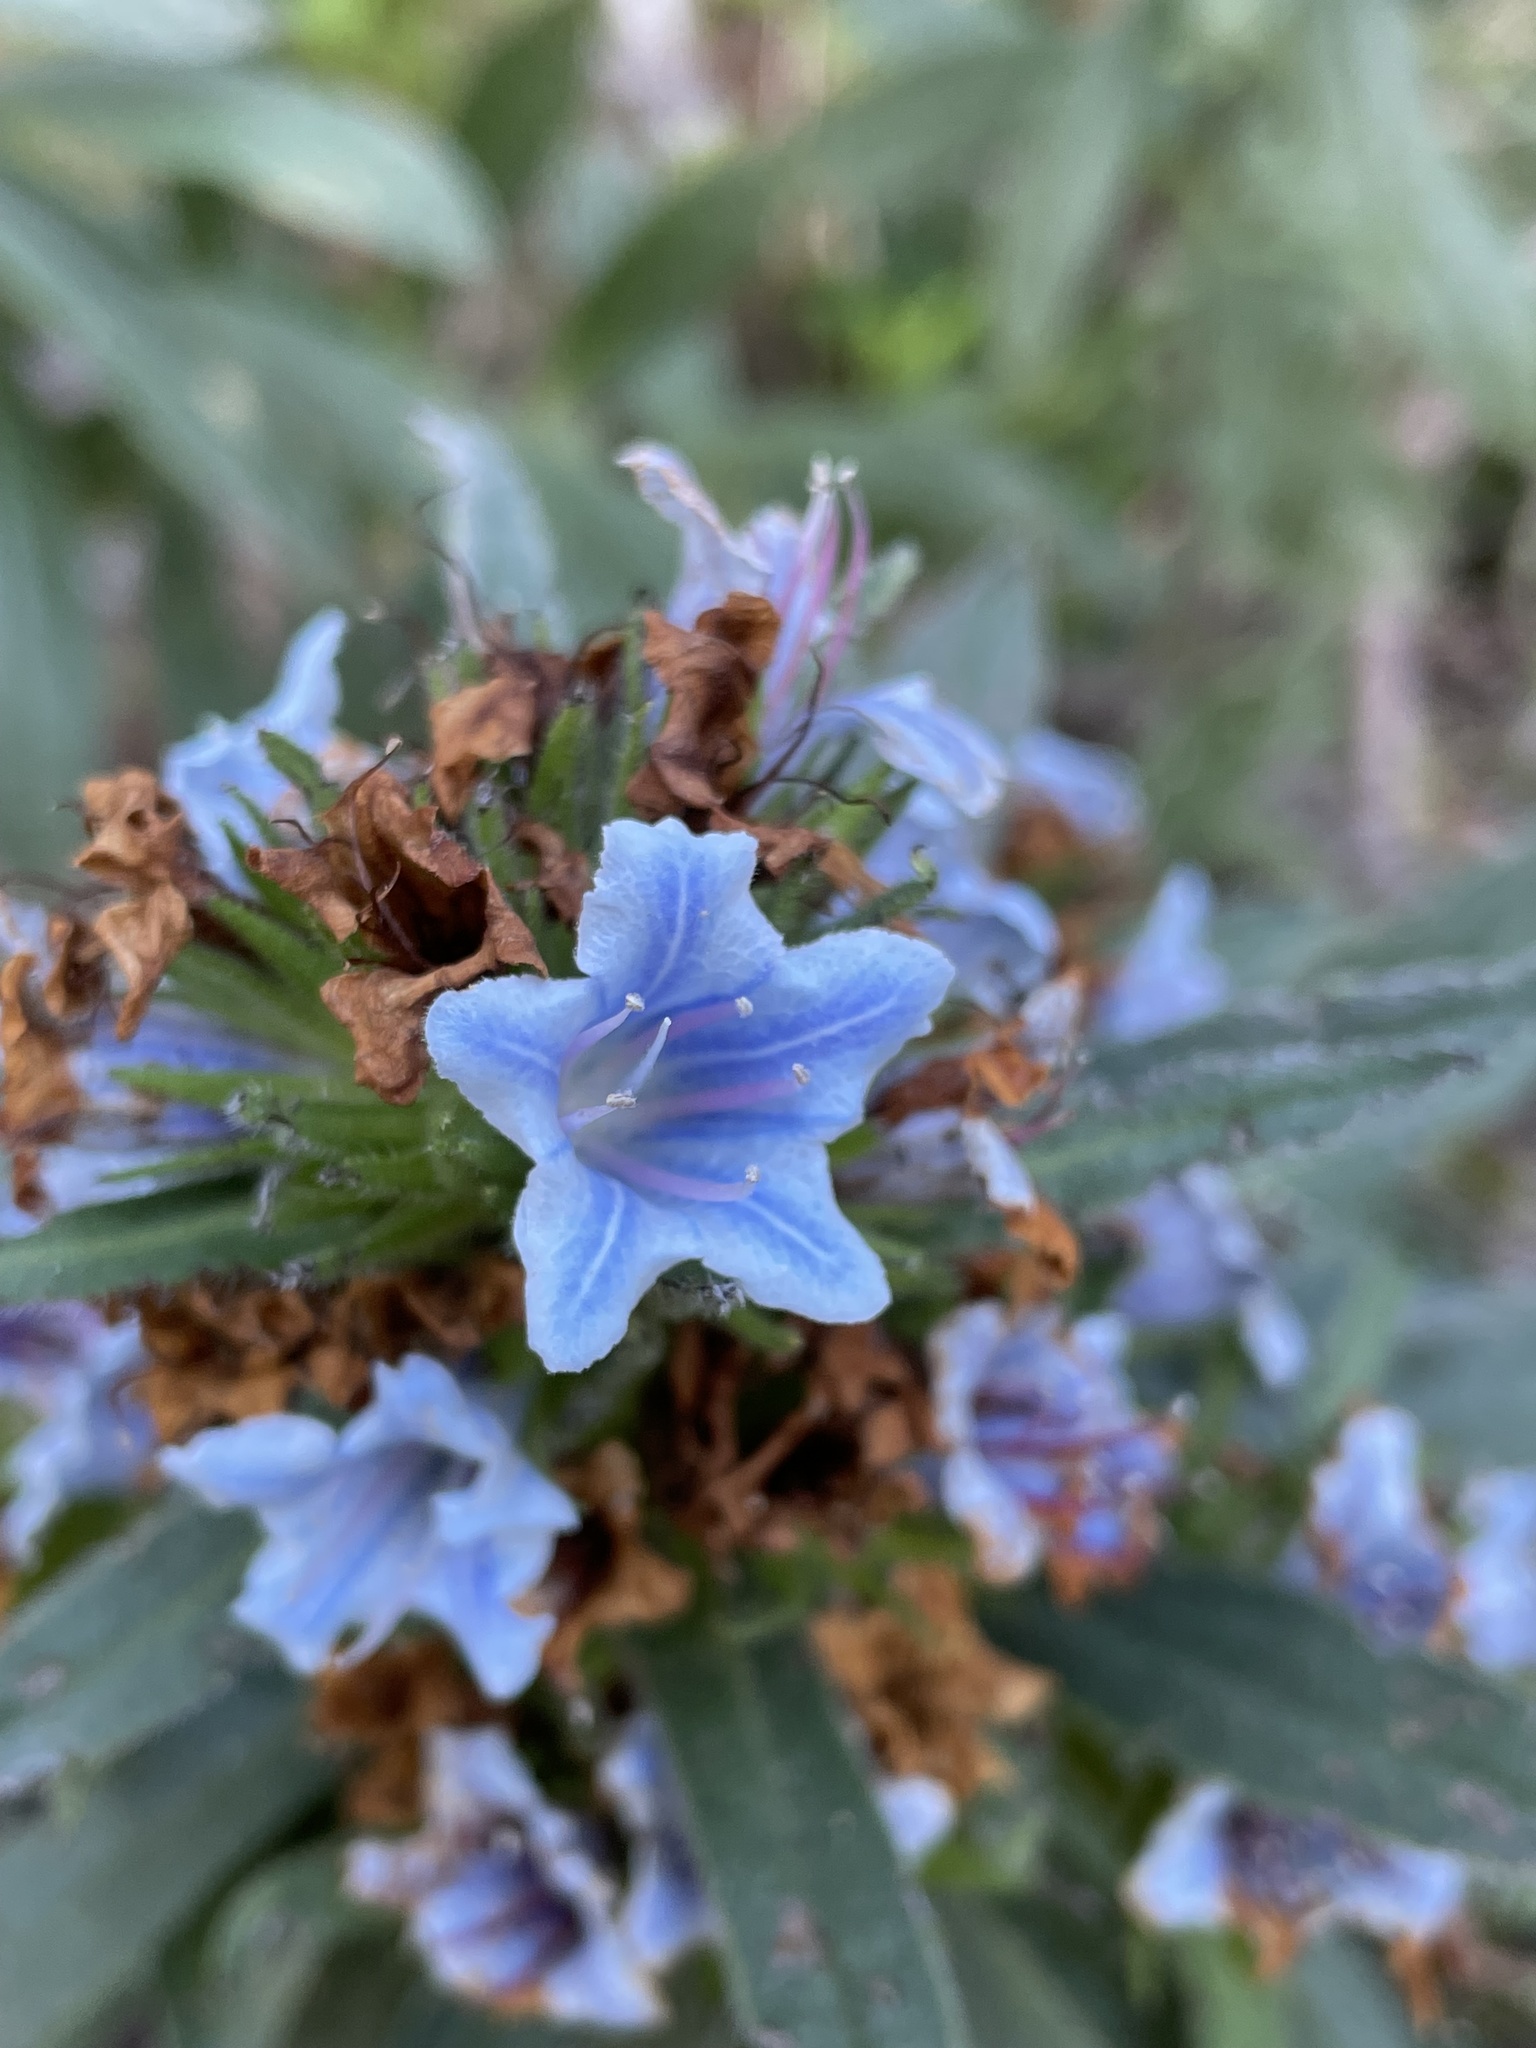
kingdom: Plantae
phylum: Tracheophyta
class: Magnoliopsida
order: Boraginales
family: Boraginaceae
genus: Lobostemon
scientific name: Lobostemon montanus
